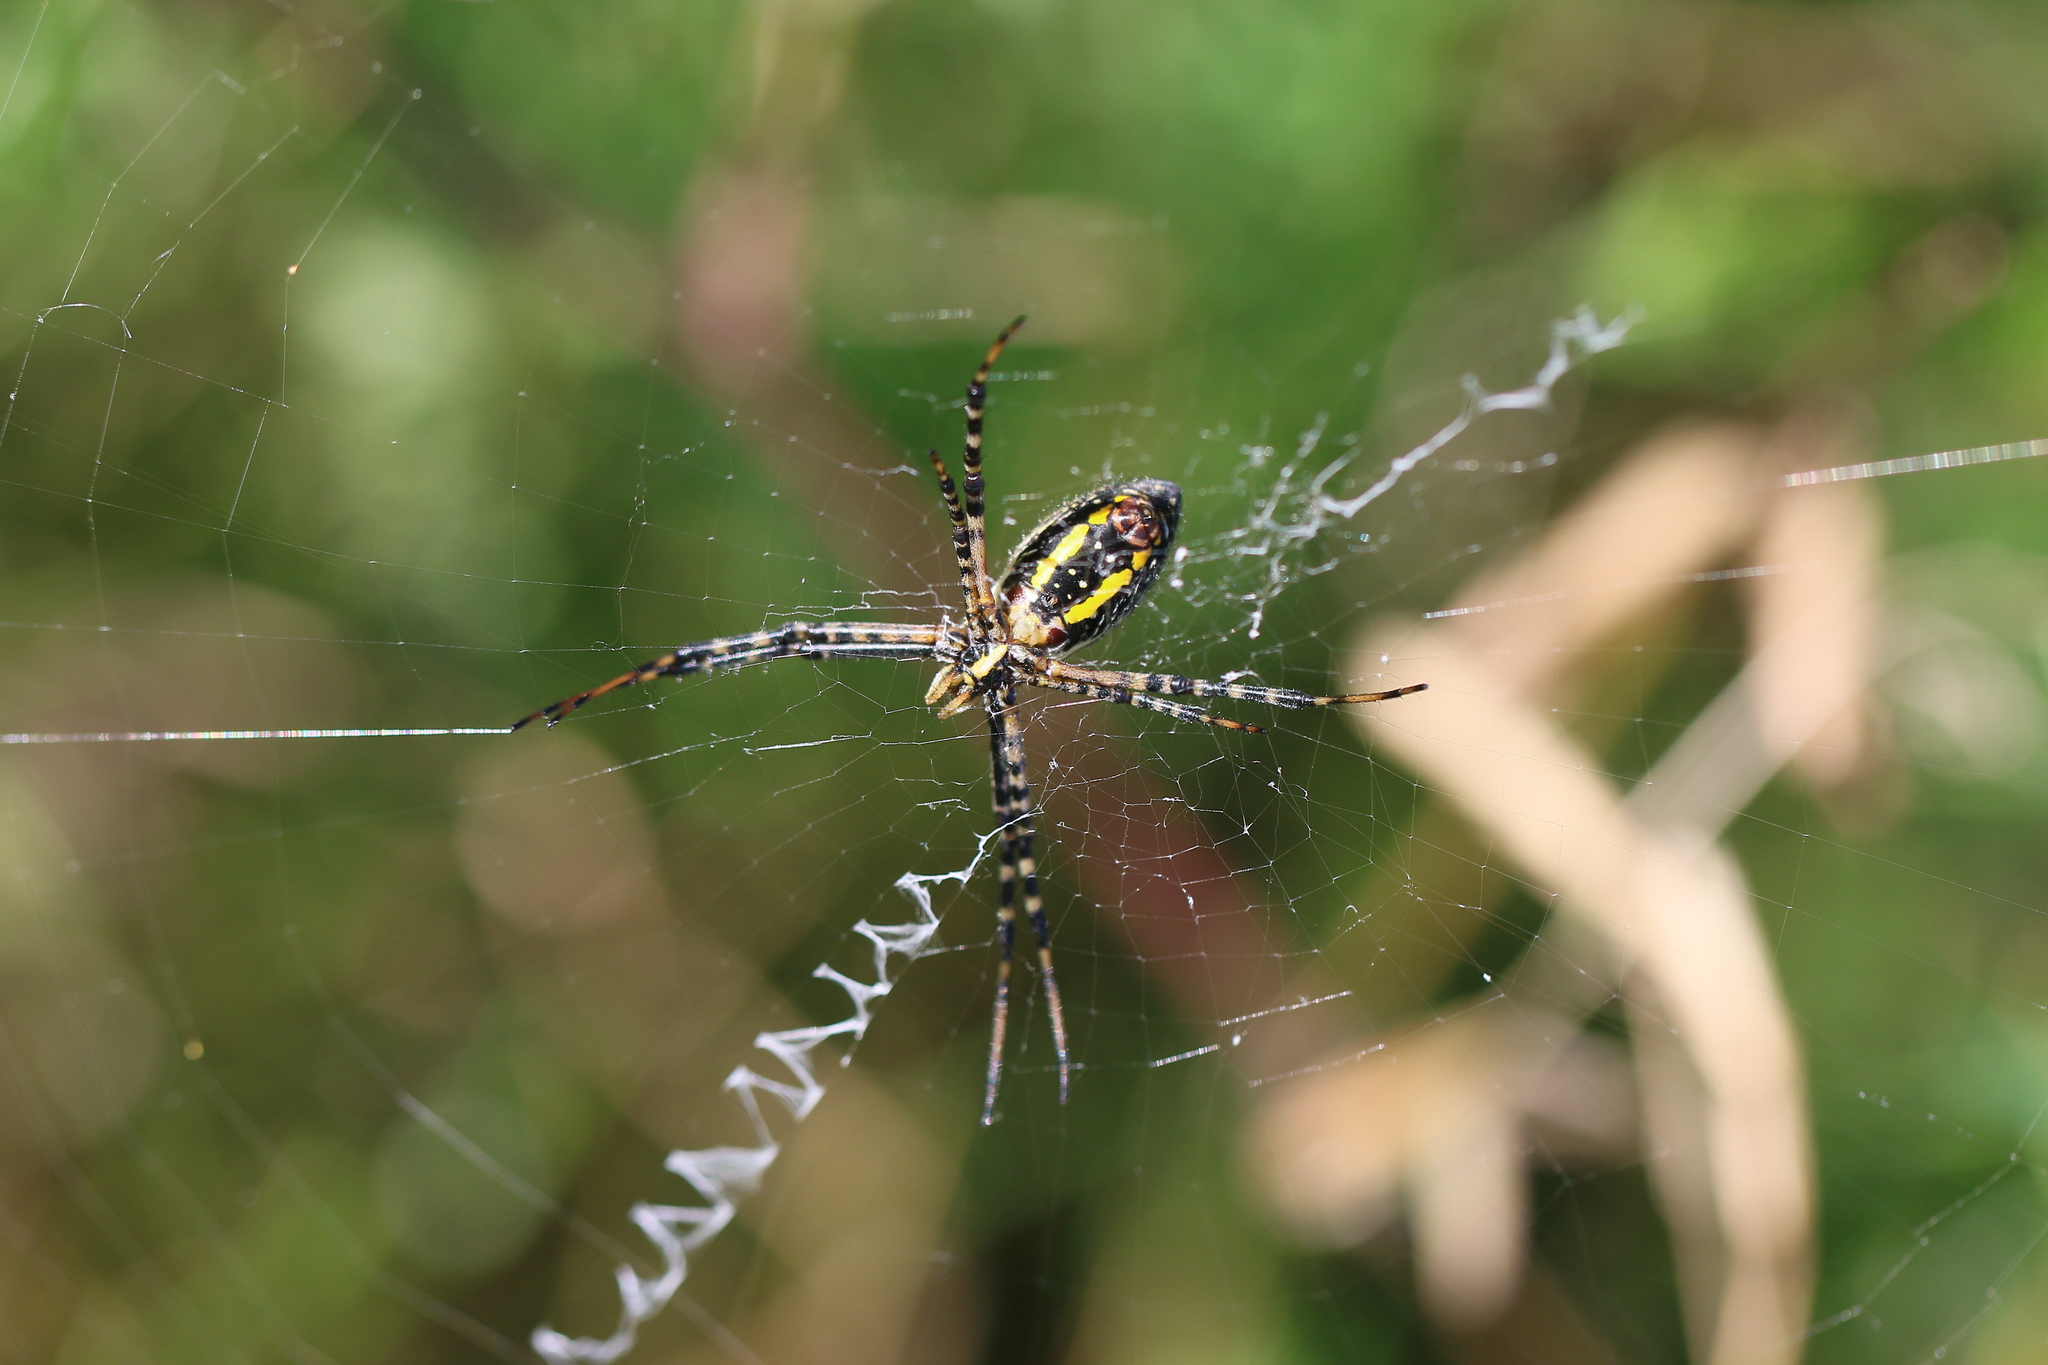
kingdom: Animalia
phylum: Arthropoda
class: Arachnida
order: Araneae
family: Araneidae
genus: Argiope
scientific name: Argiope trifasciata
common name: Banded garden spider
